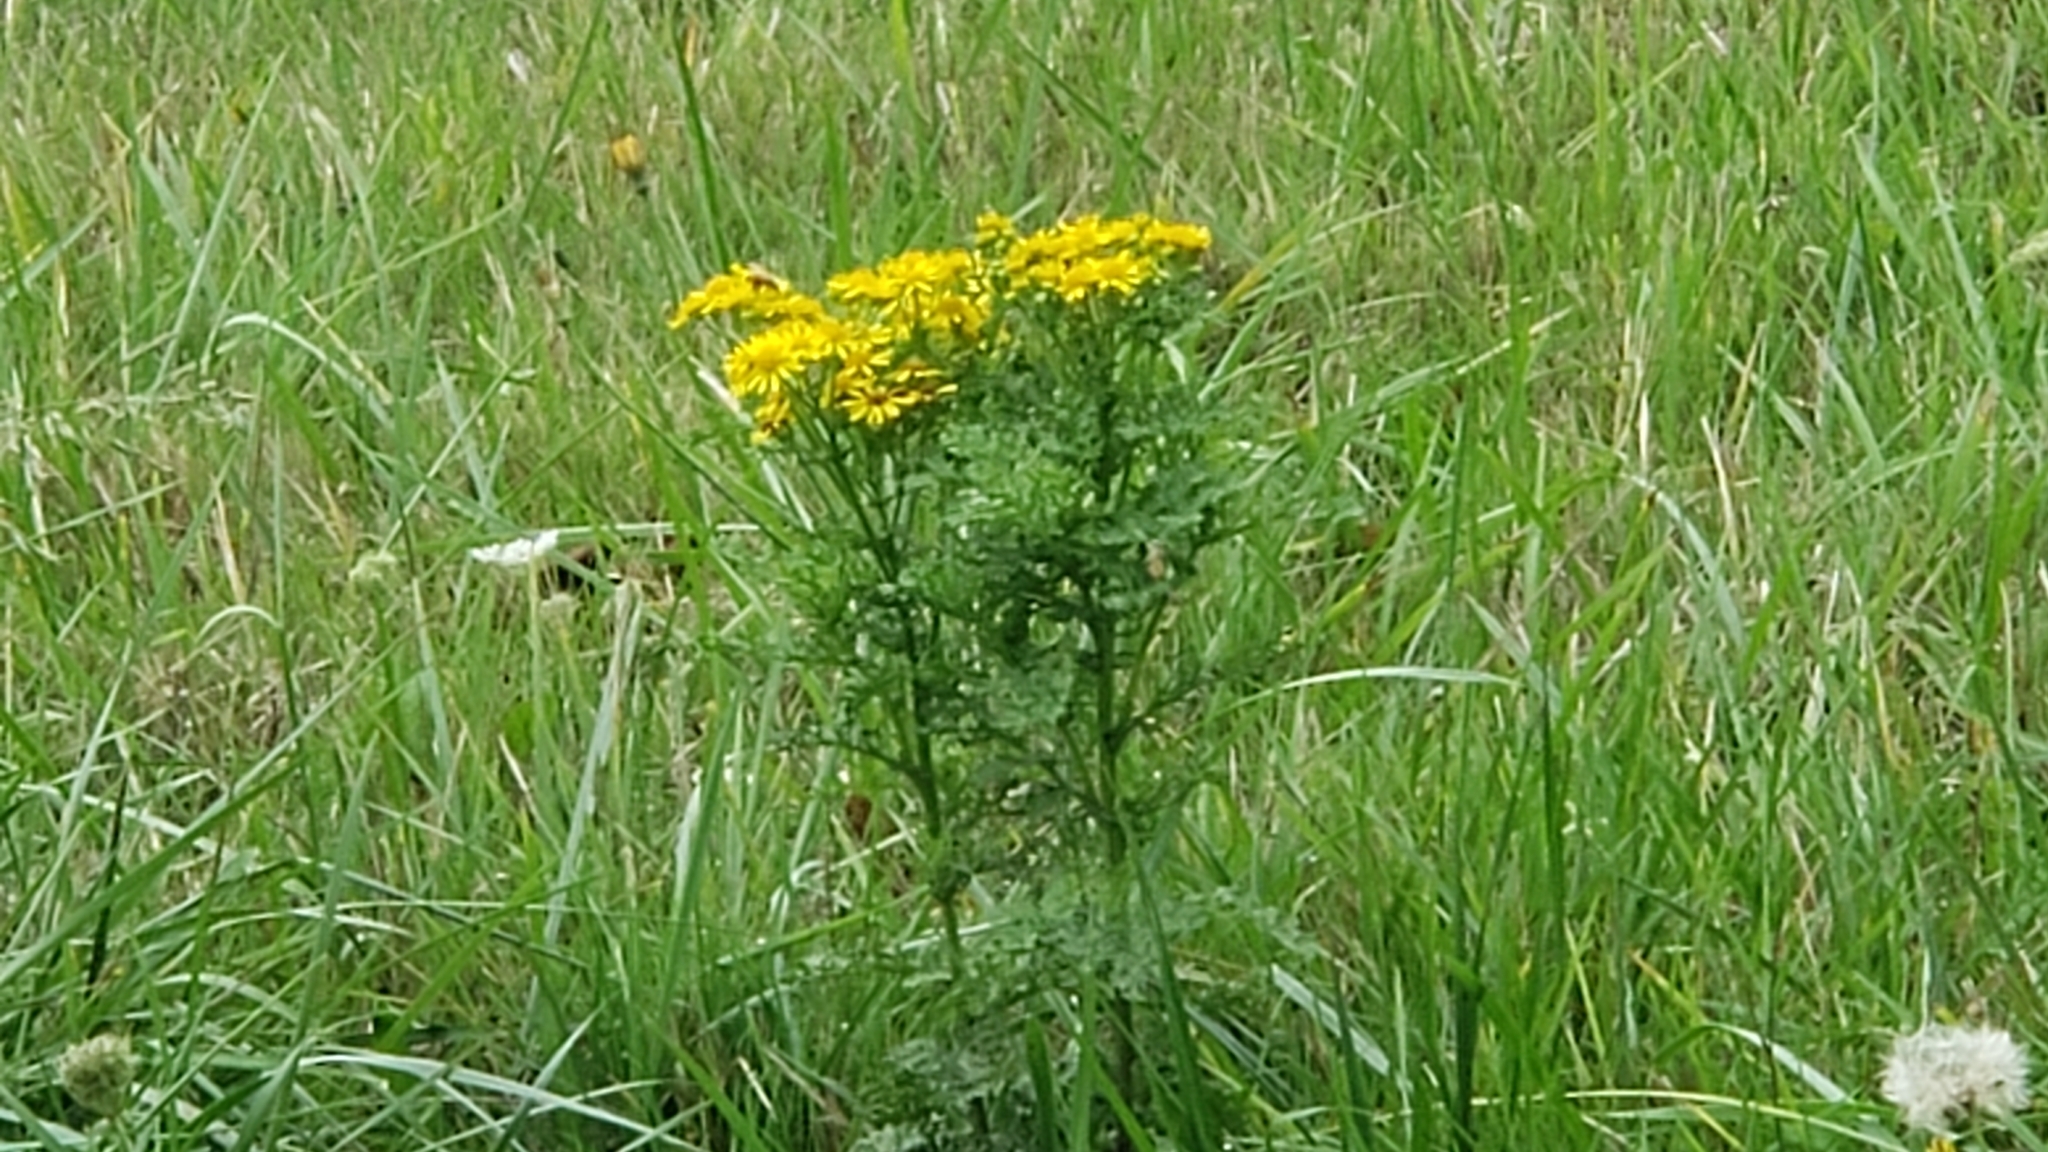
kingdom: Plantae
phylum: Tracheophyta
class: Magnoliopsida
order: Asterales
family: Asteraceae
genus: Jacobaea
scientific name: Jacobaea vulgaris
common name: Stinking willie
